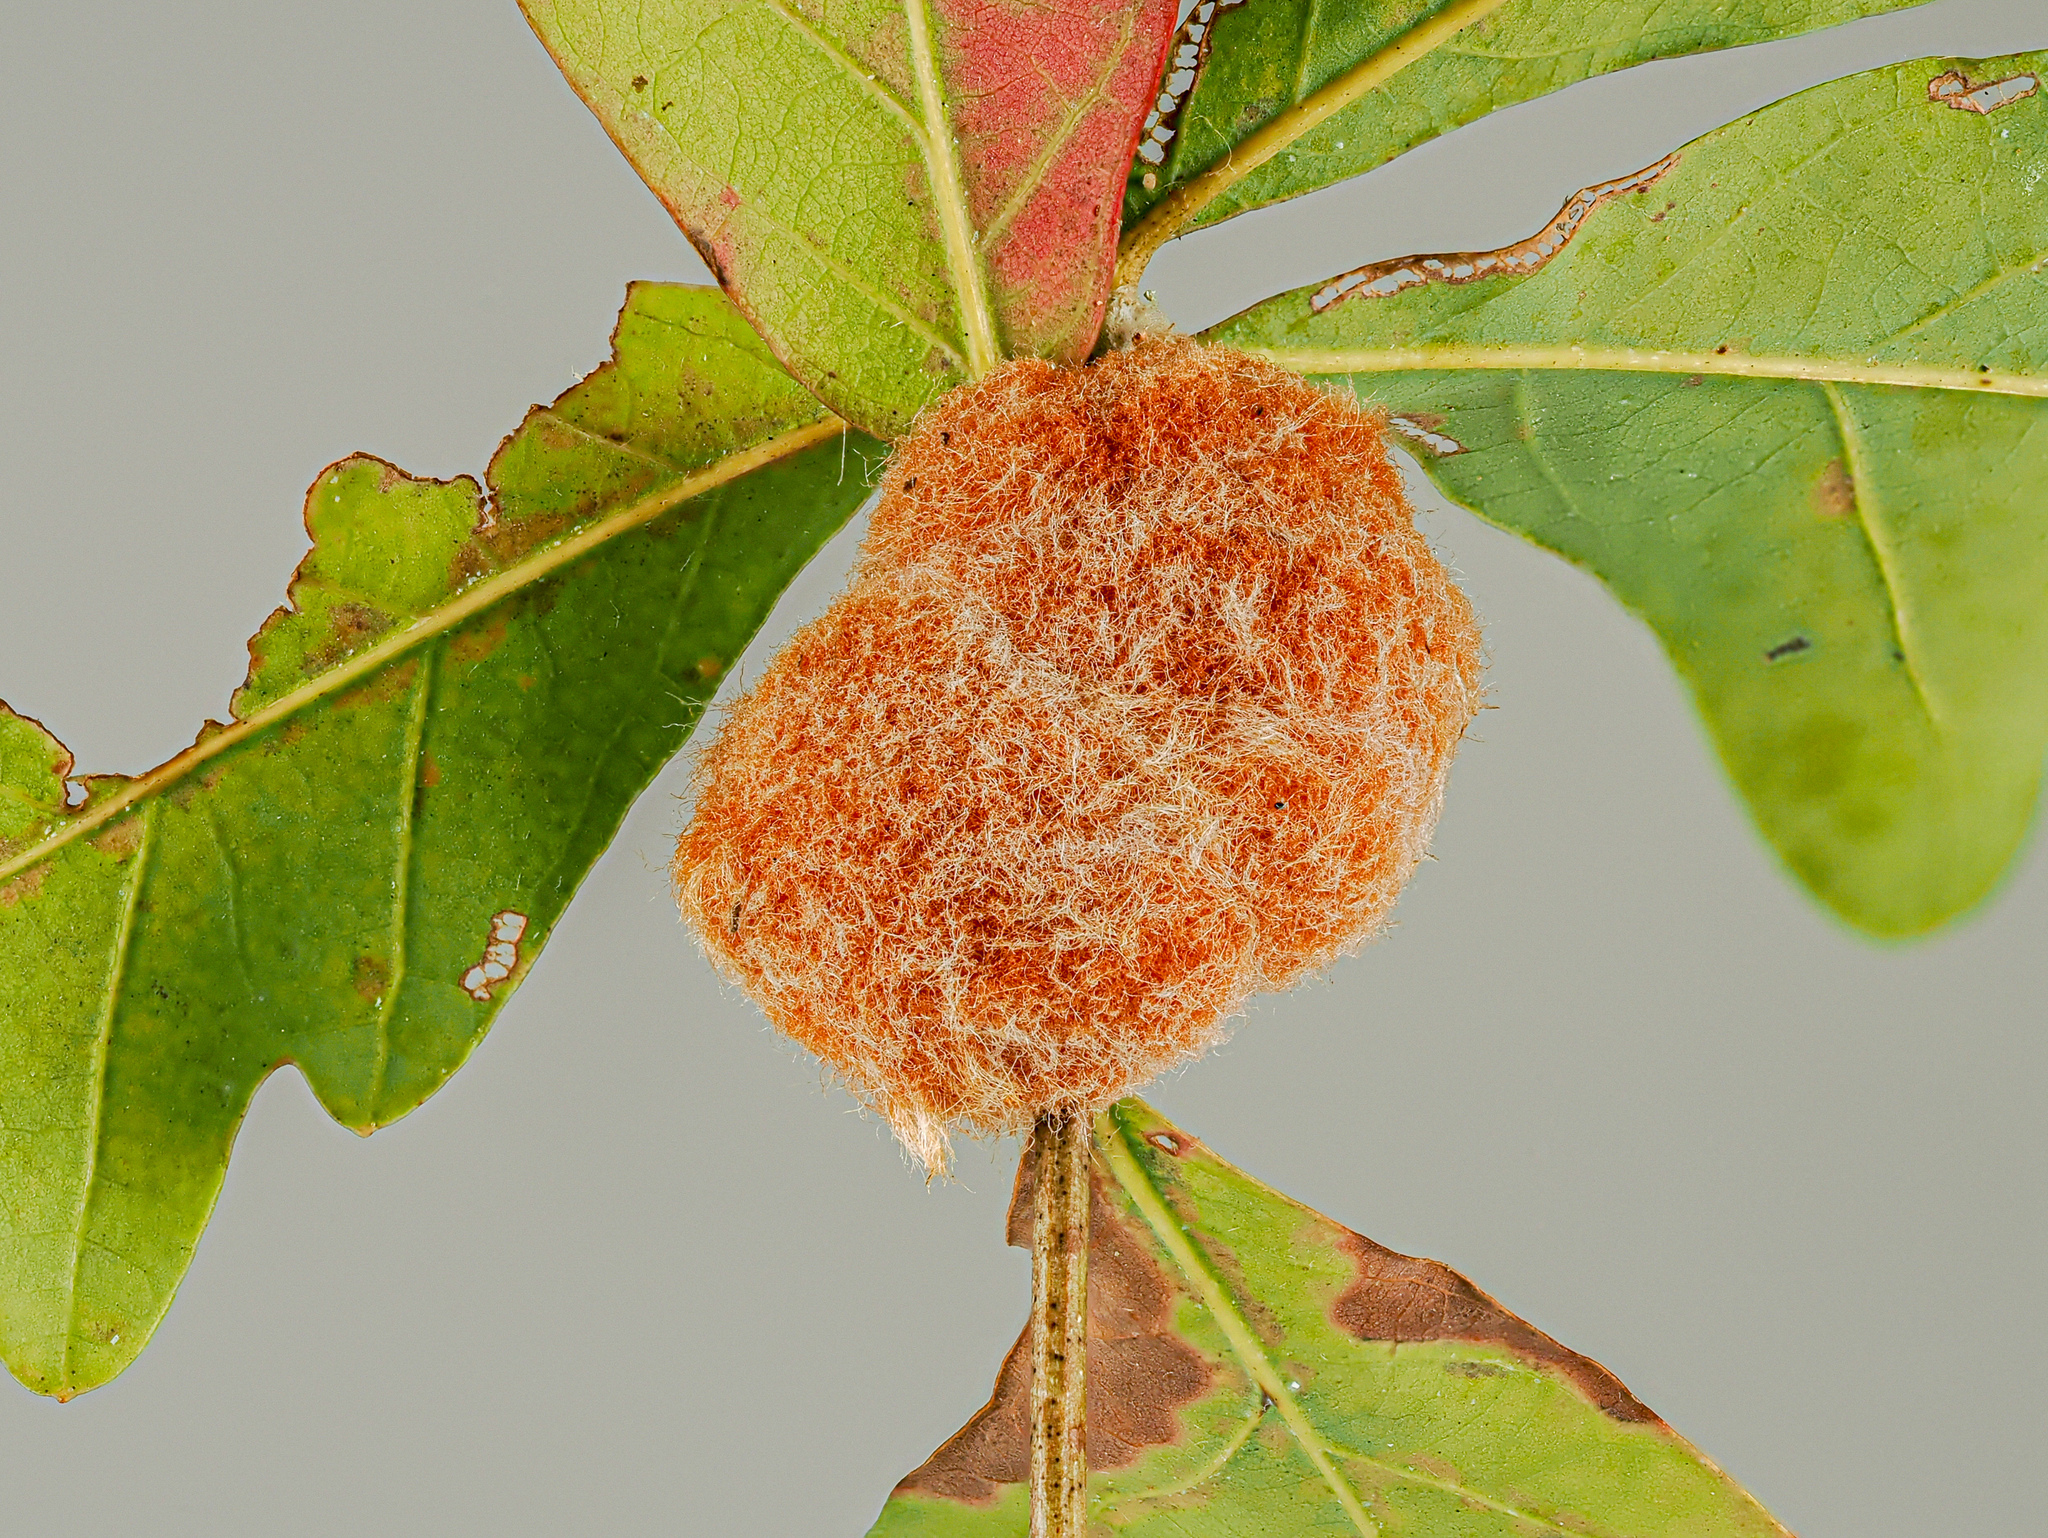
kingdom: Animalia
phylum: Arthropoda
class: Insecta
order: Hymenoptera
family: Cynipidae
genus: Andricus
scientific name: Andricus quercusflocci
